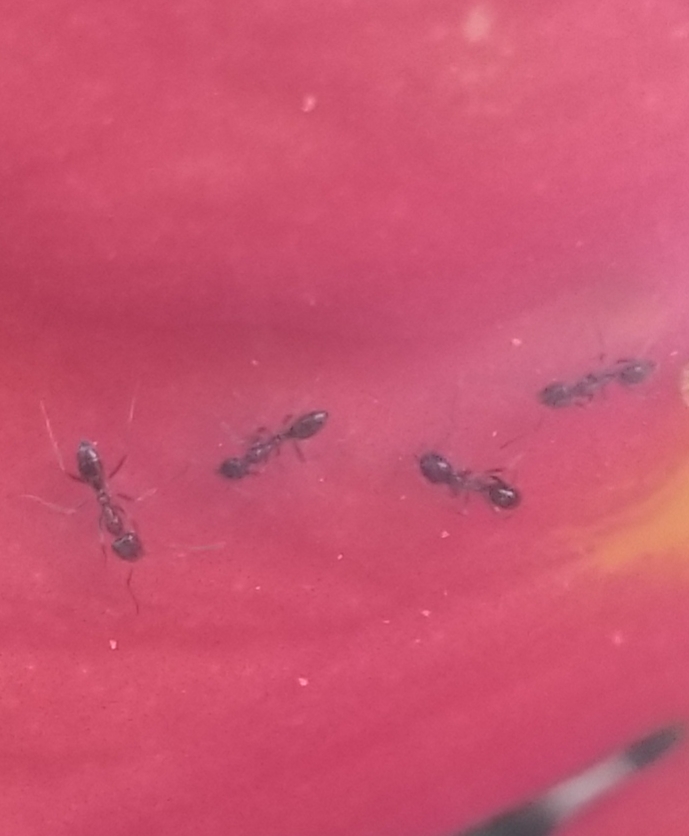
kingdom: Animalia
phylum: Arthropoda
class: Insecta
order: Hymenoptera
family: Formicidae
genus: Linepithema
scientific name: Linepithema humile
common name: Argentine ant
